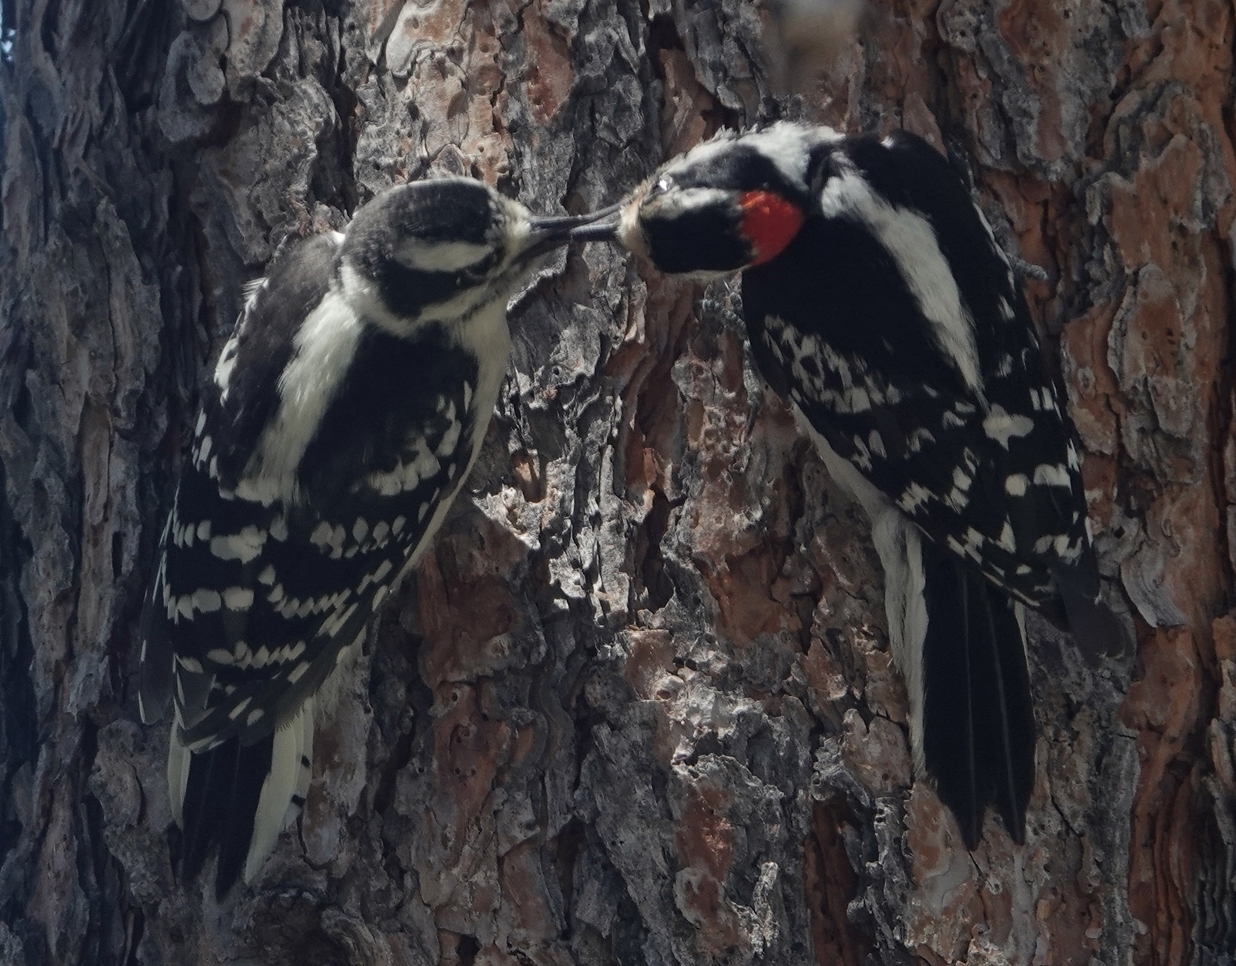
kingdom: Animalia
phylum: Chordata
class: Aves
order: Piciformes
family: Picidae
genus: Dryobates
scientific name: Dryobates pubescens
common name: Downy woodpecker
